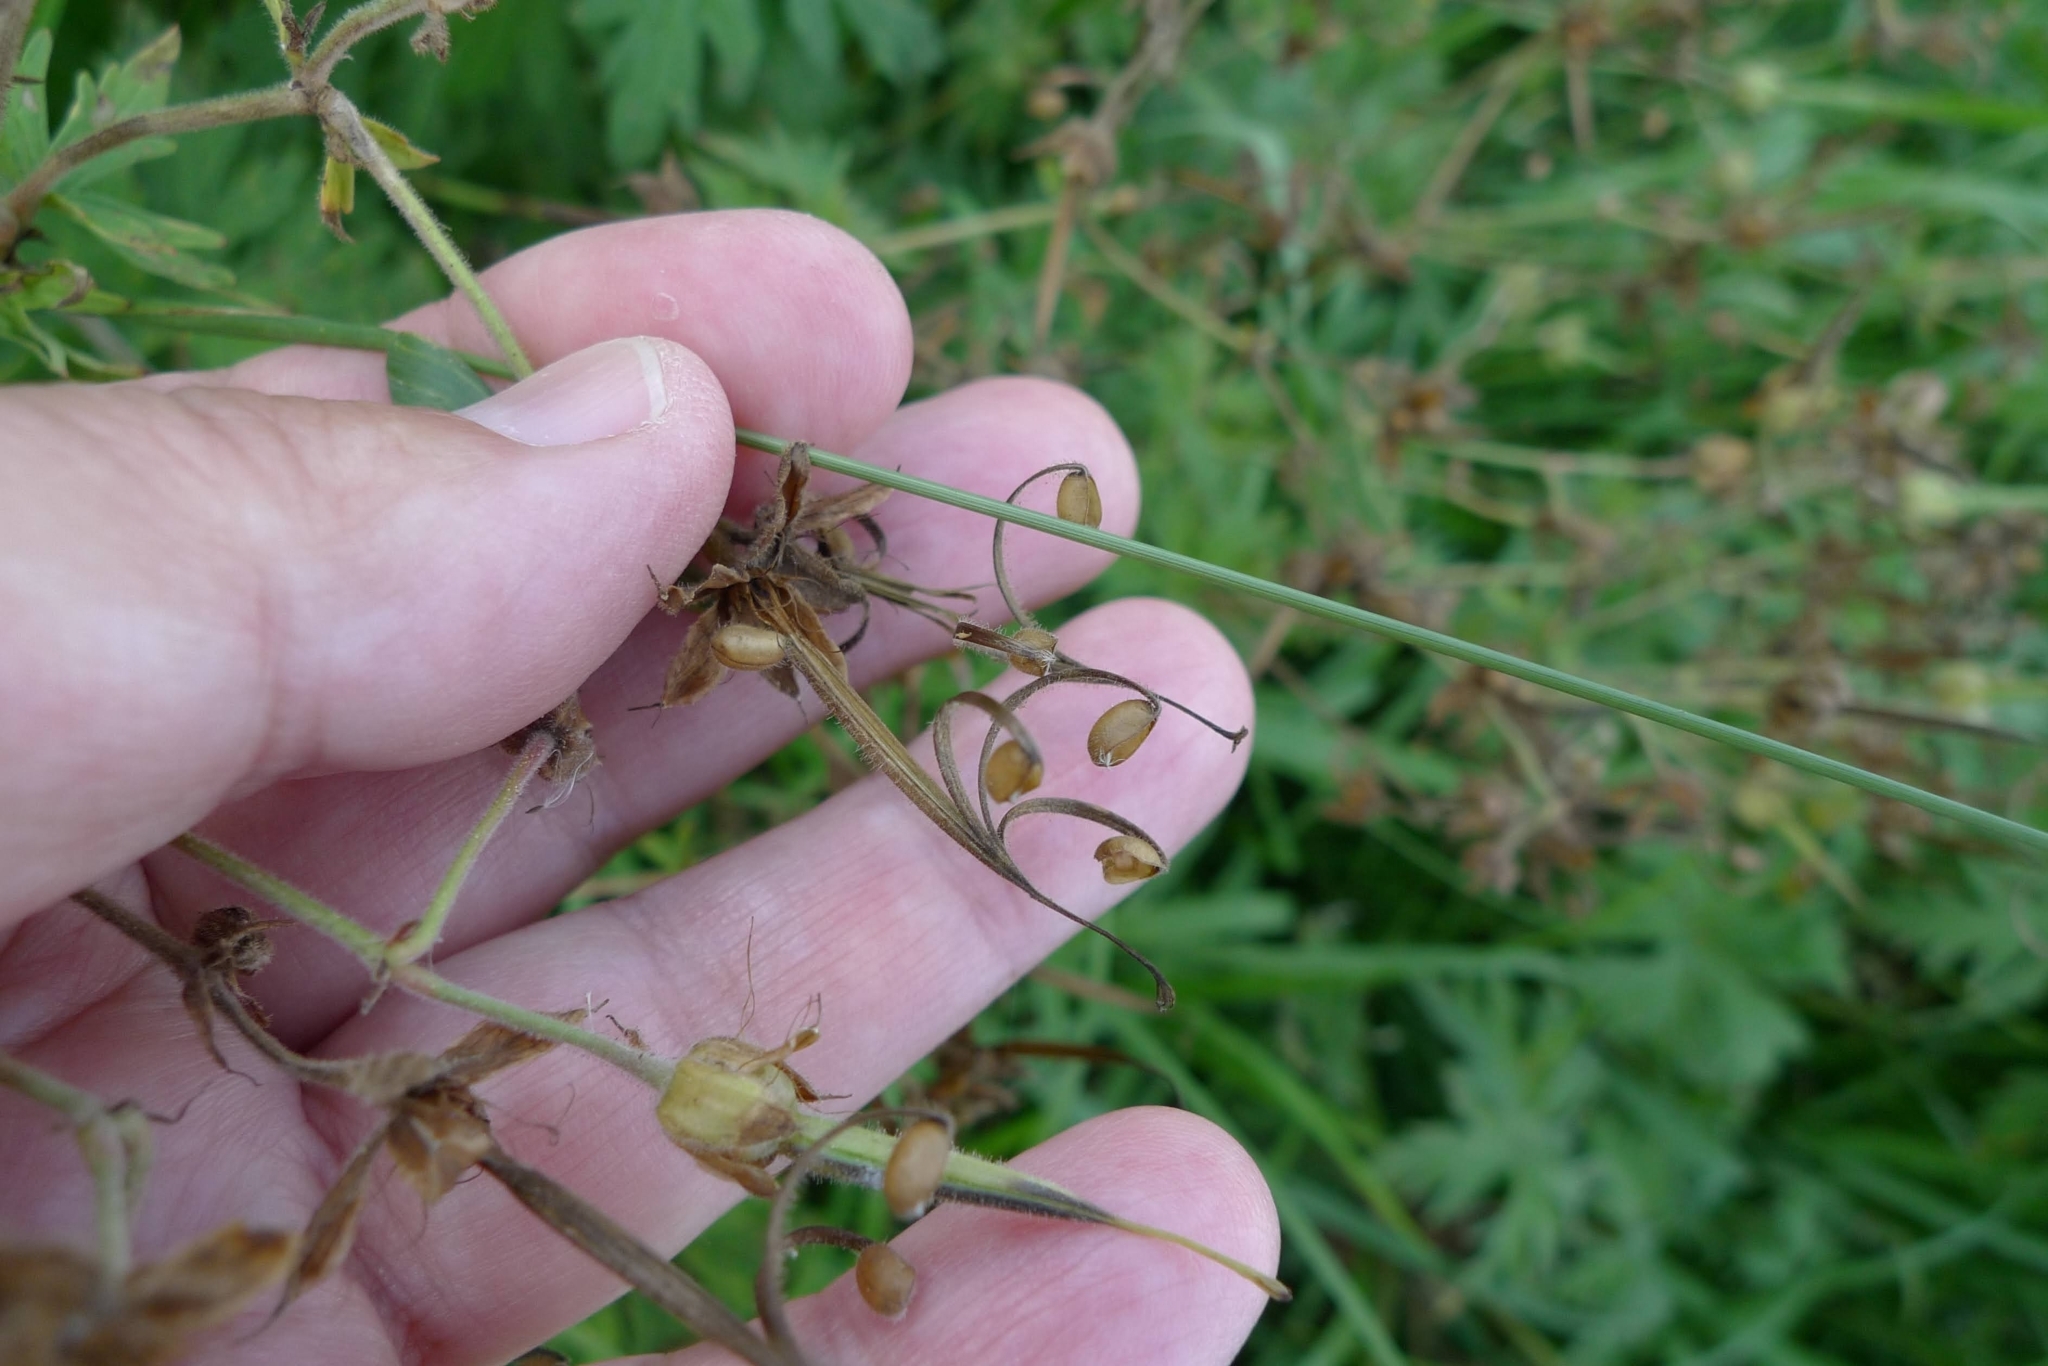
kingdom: Plantae
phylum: Tracheophyta
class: Magnoliopsida
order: Geraniales
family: Geraniaceae
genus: Geranium
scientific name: Geranium pratense
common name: Meadow crane's-bill
